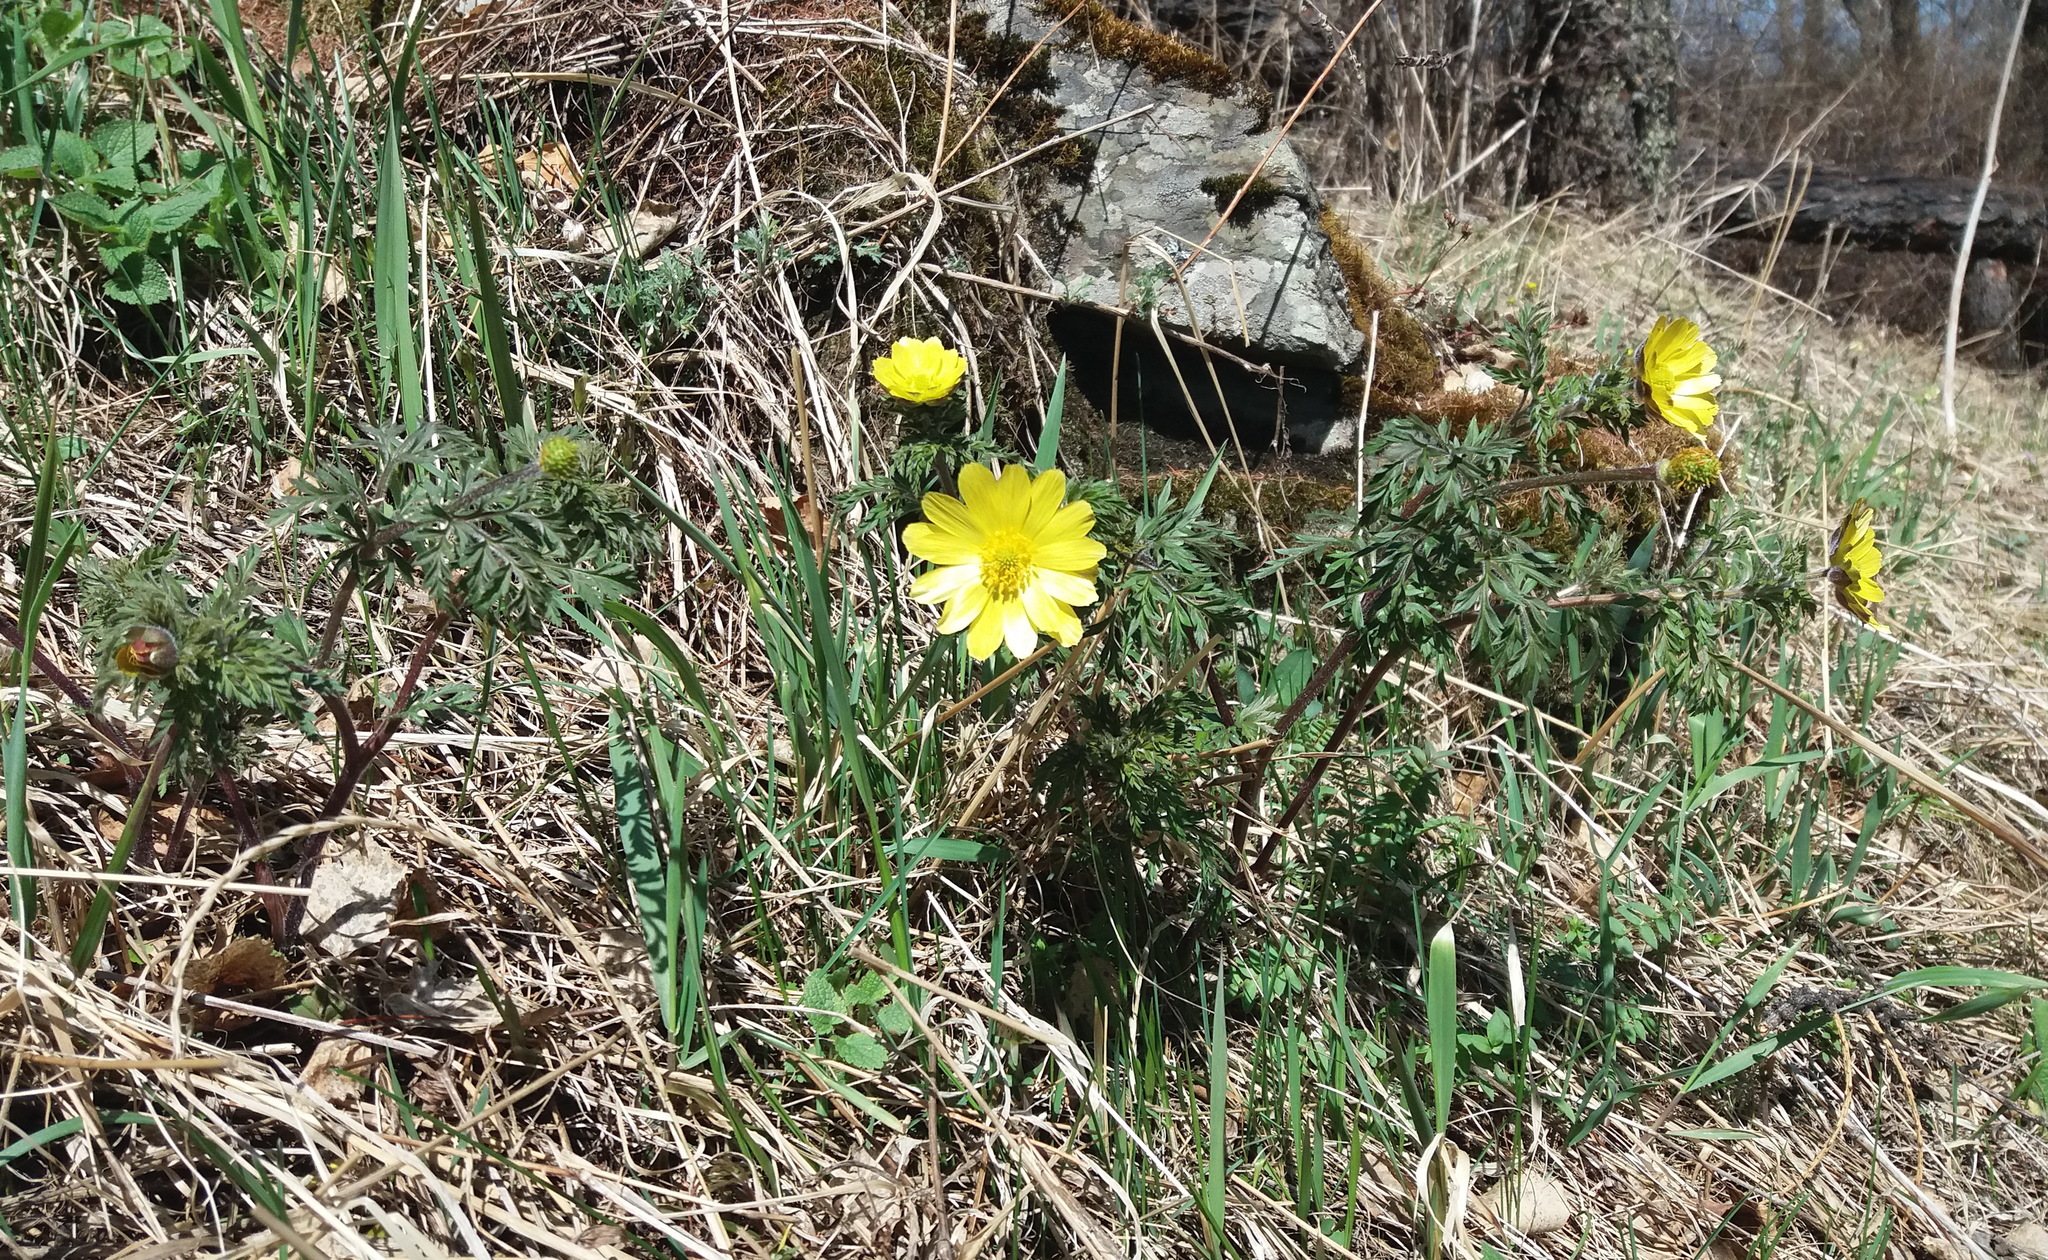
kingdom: Plantae
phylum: Tracheophyta
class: Magnoliopsida
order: Ranunculales
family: Ranunculaceae
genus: Adonis
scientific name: Adonis villosa
